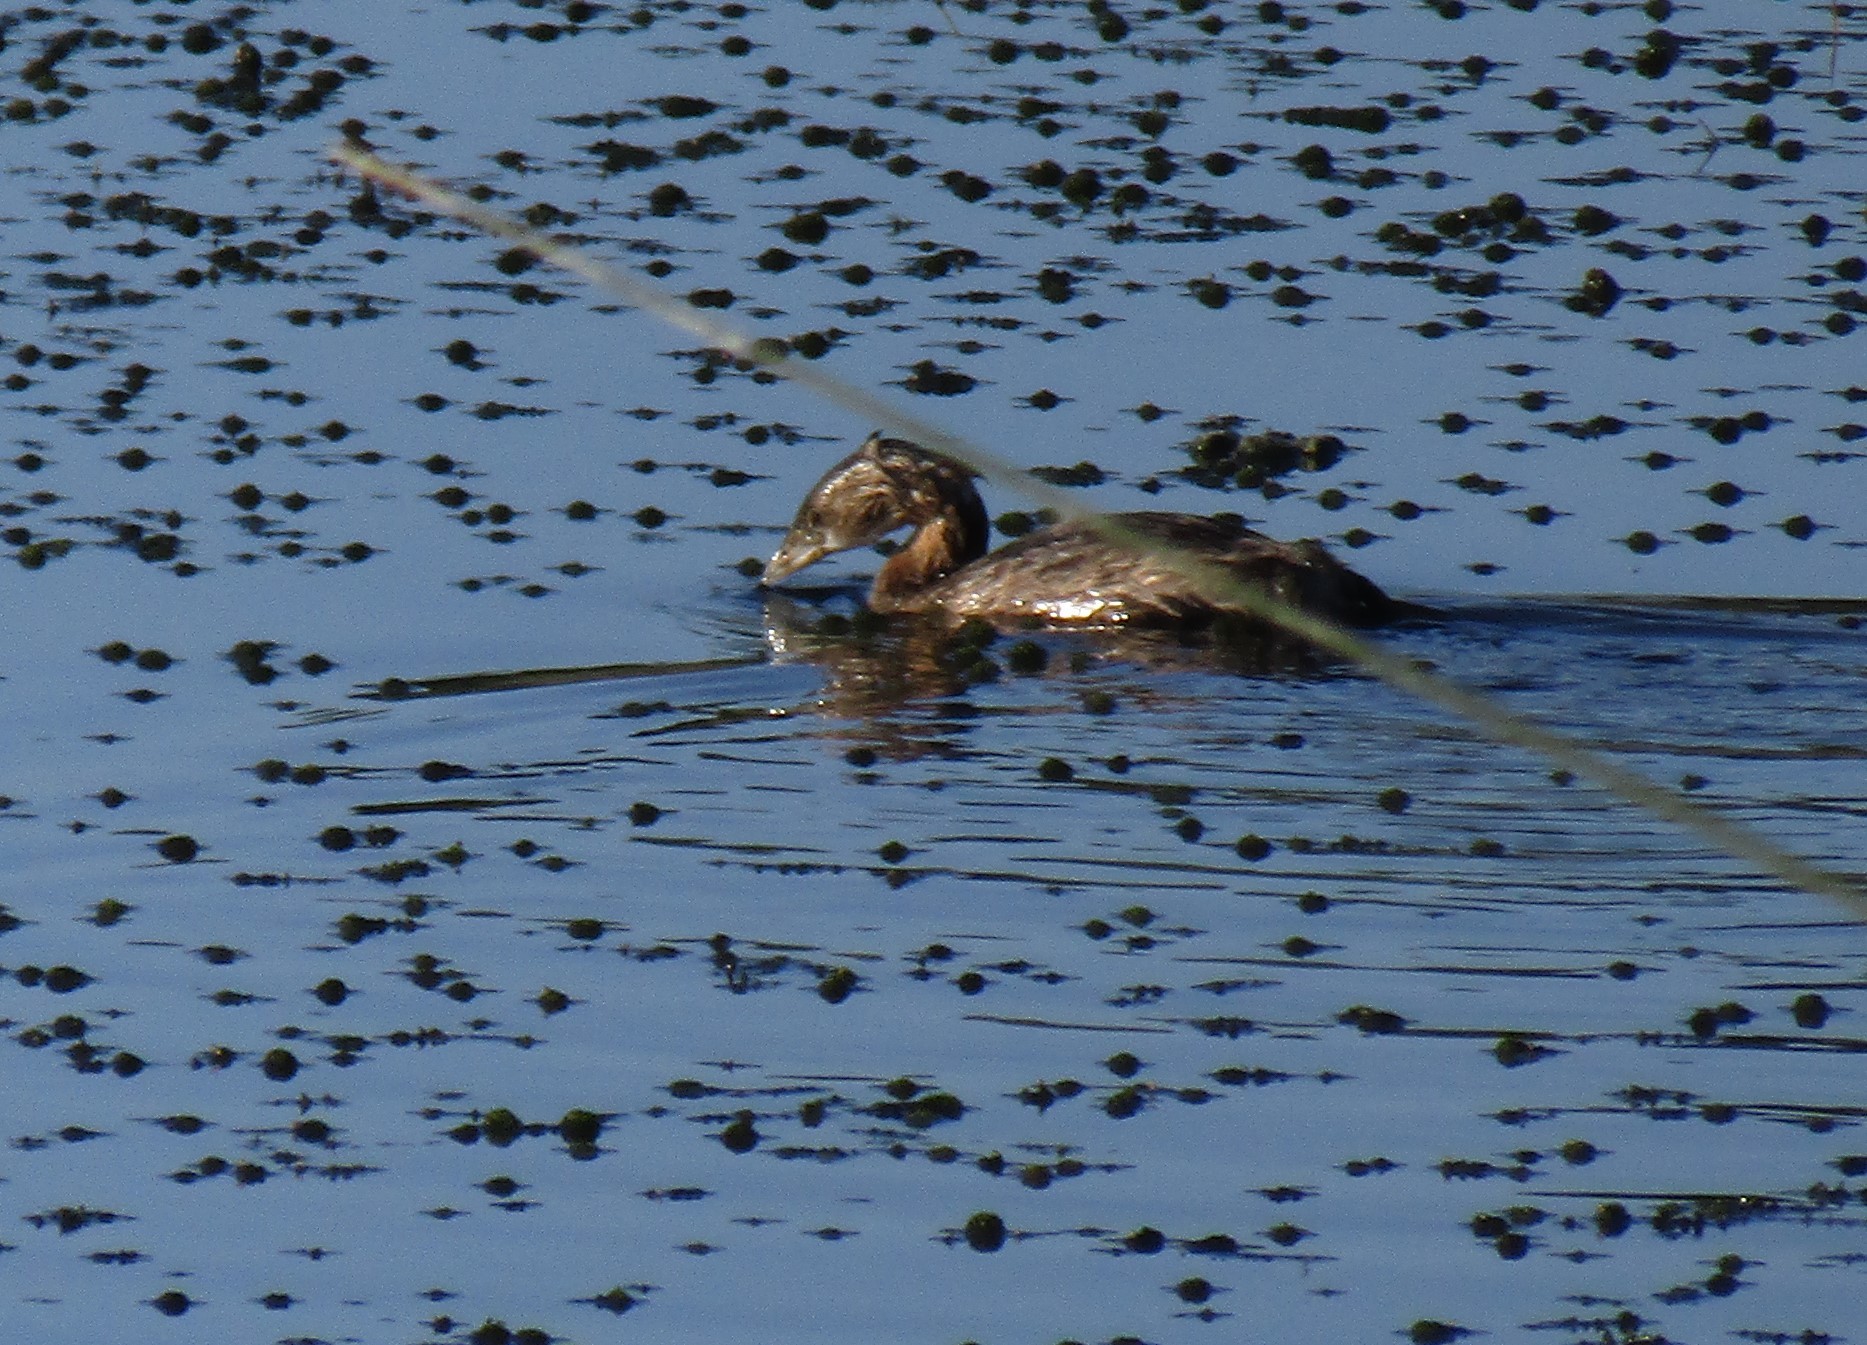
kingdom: Animalia
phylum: Chordata
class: Aves
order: Podicipediformes
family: Podicipedidae
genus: Podilymbus
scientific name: Podilymbus podiceps
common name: Pied-billed grebe
